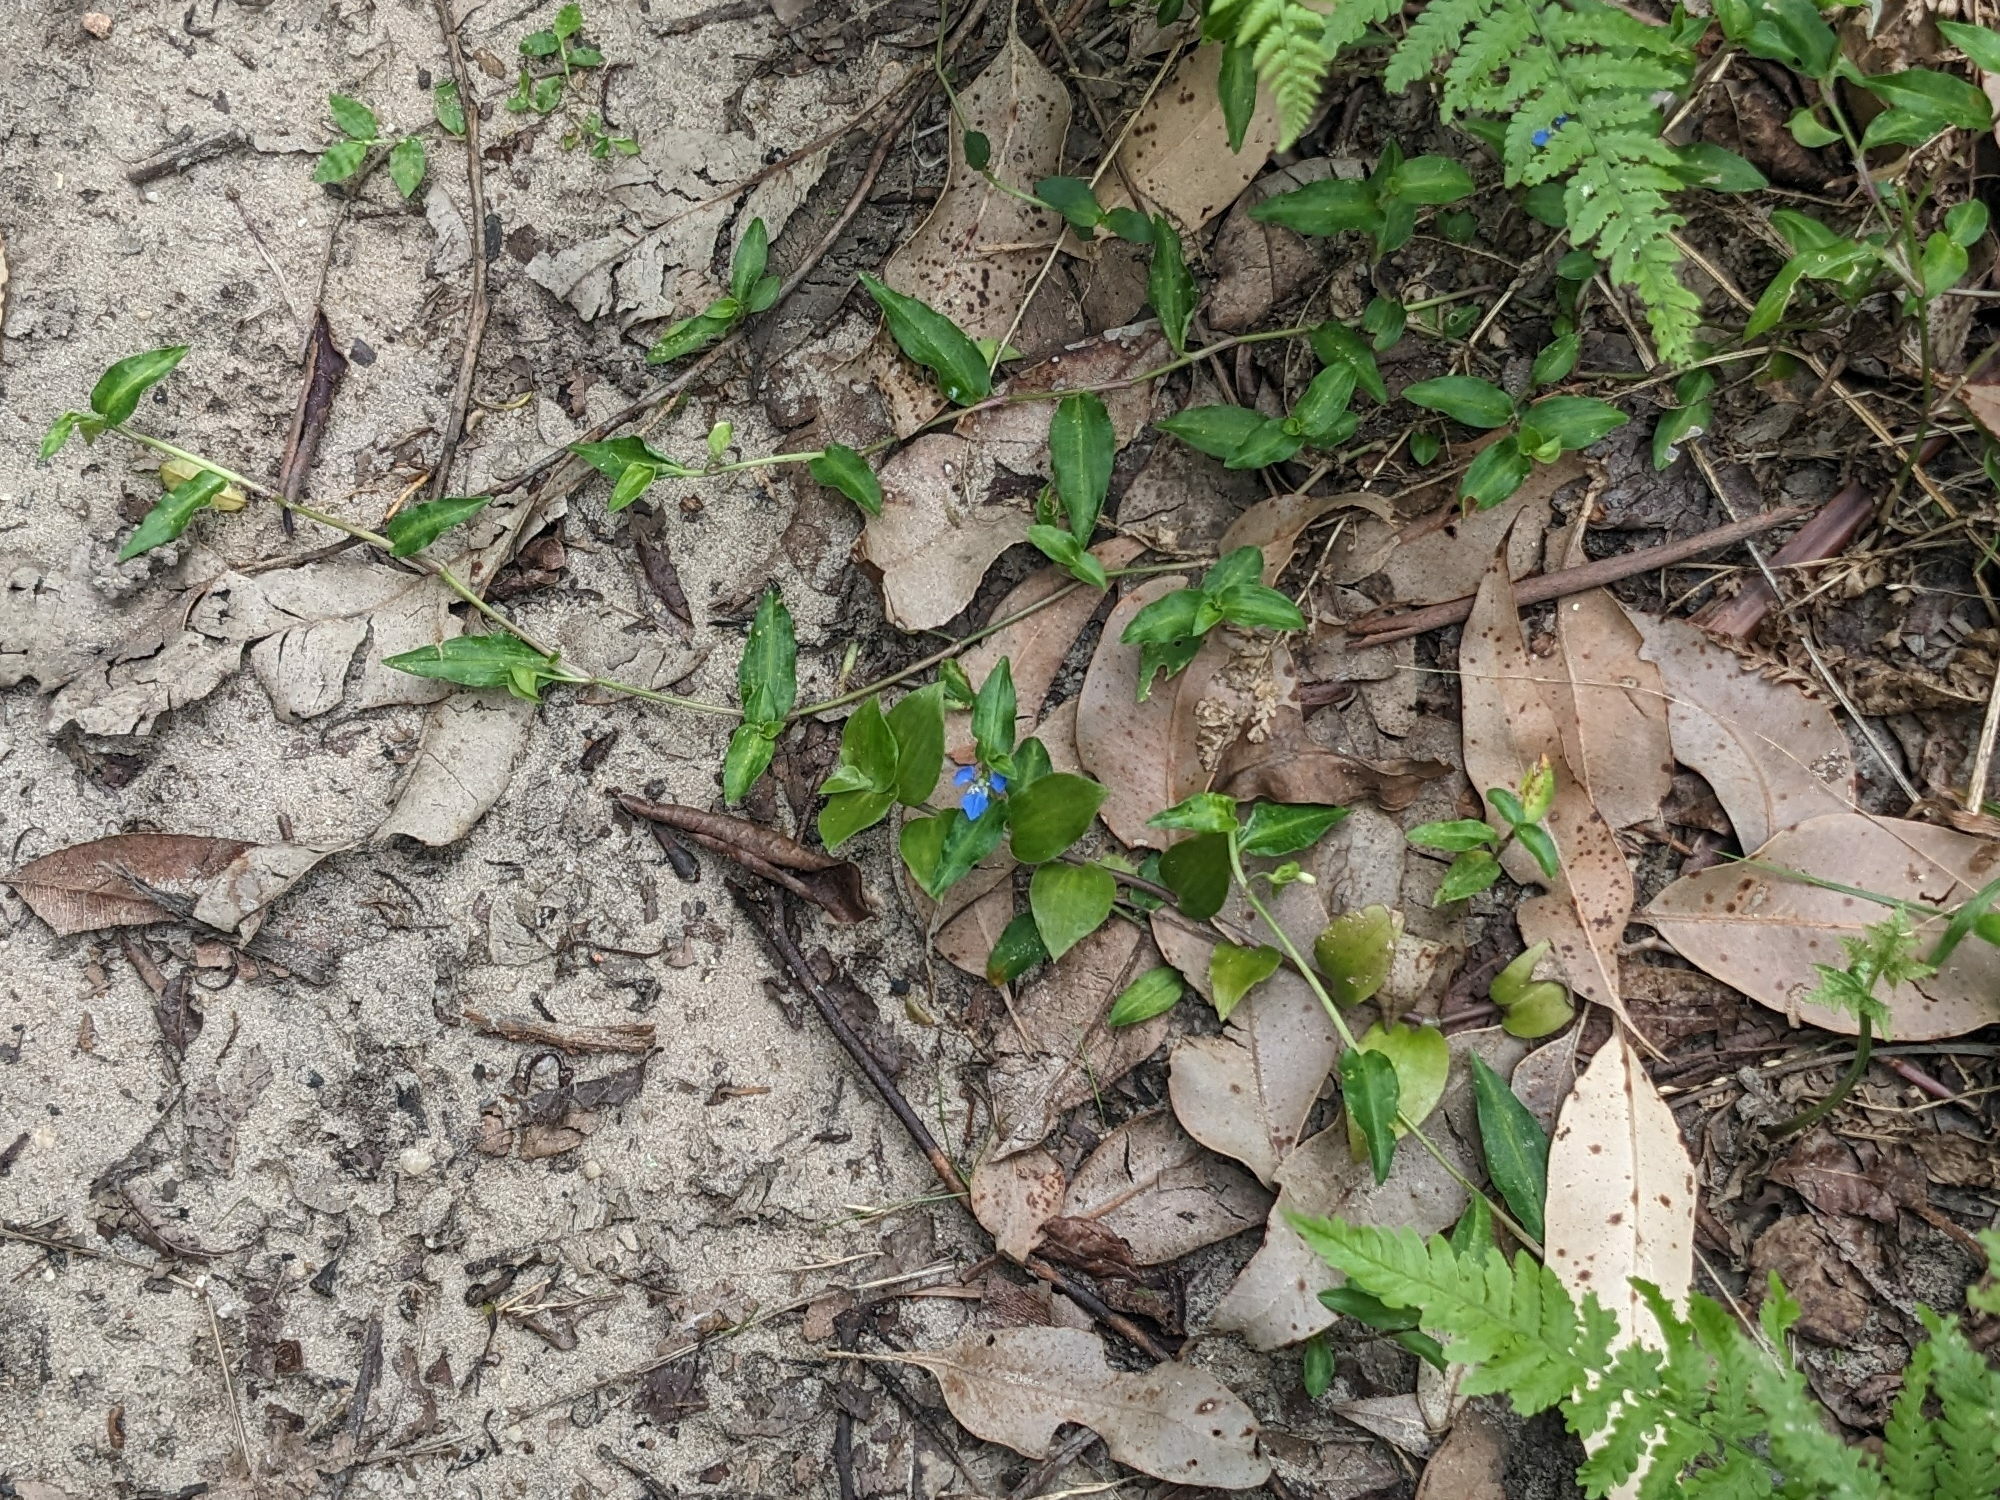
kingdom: Plantae
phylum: Tracheophyta
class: Liliopsida
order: Commelinales
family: Commelinaceae
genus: Commelina
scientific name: Commelina cyanea
